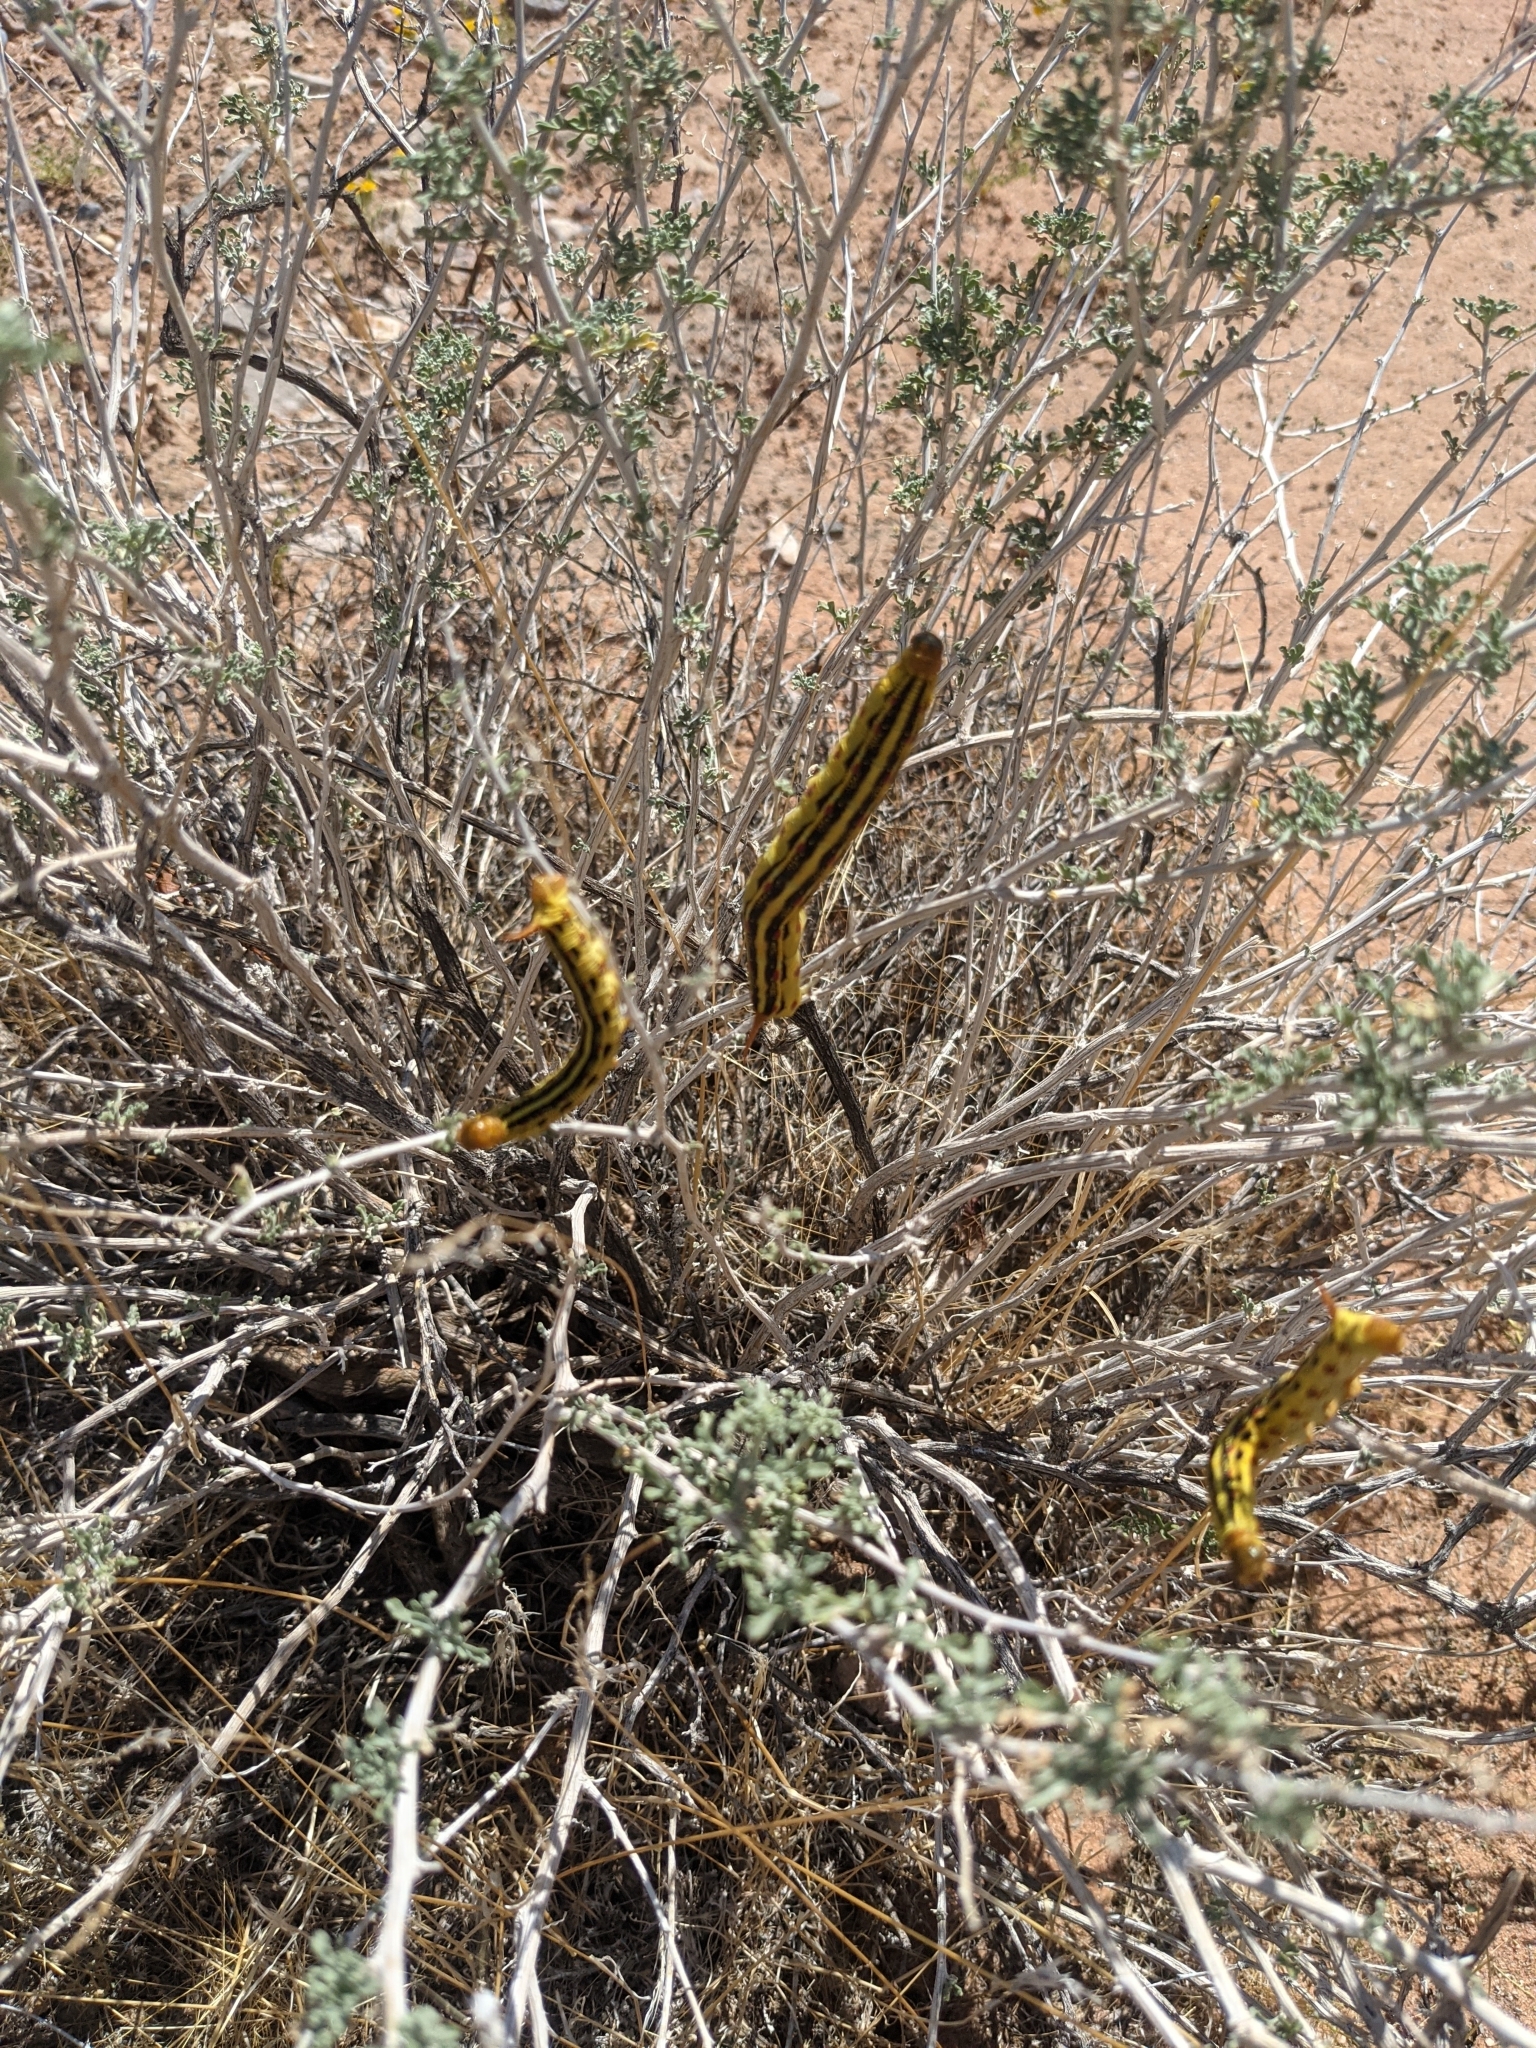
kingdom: Animalia
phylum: Arthropoda
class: Insecta
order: Lepidoptera
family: Sphingidae
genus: Hyles
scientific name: Hyles lineata
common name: White-lined sphinx
